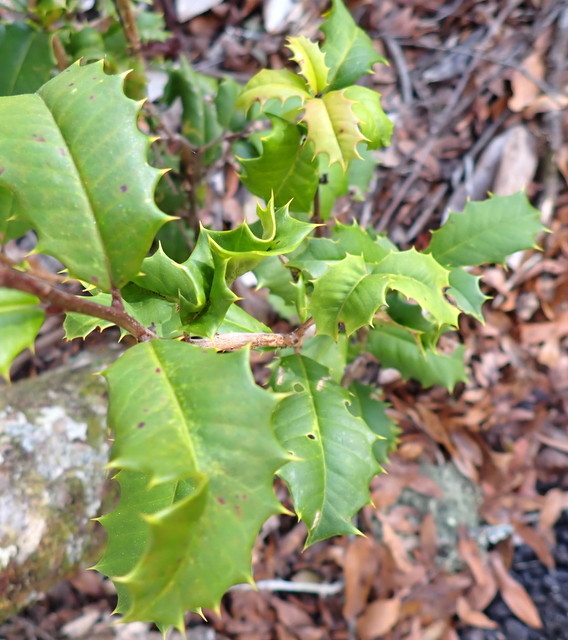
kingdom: Plantae
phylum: Tracheophyta
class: Magnoliopsida
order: Aquifoliales
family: Aquifoliaceae
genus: Ilex
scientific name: Ilex opaca
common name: American holly
